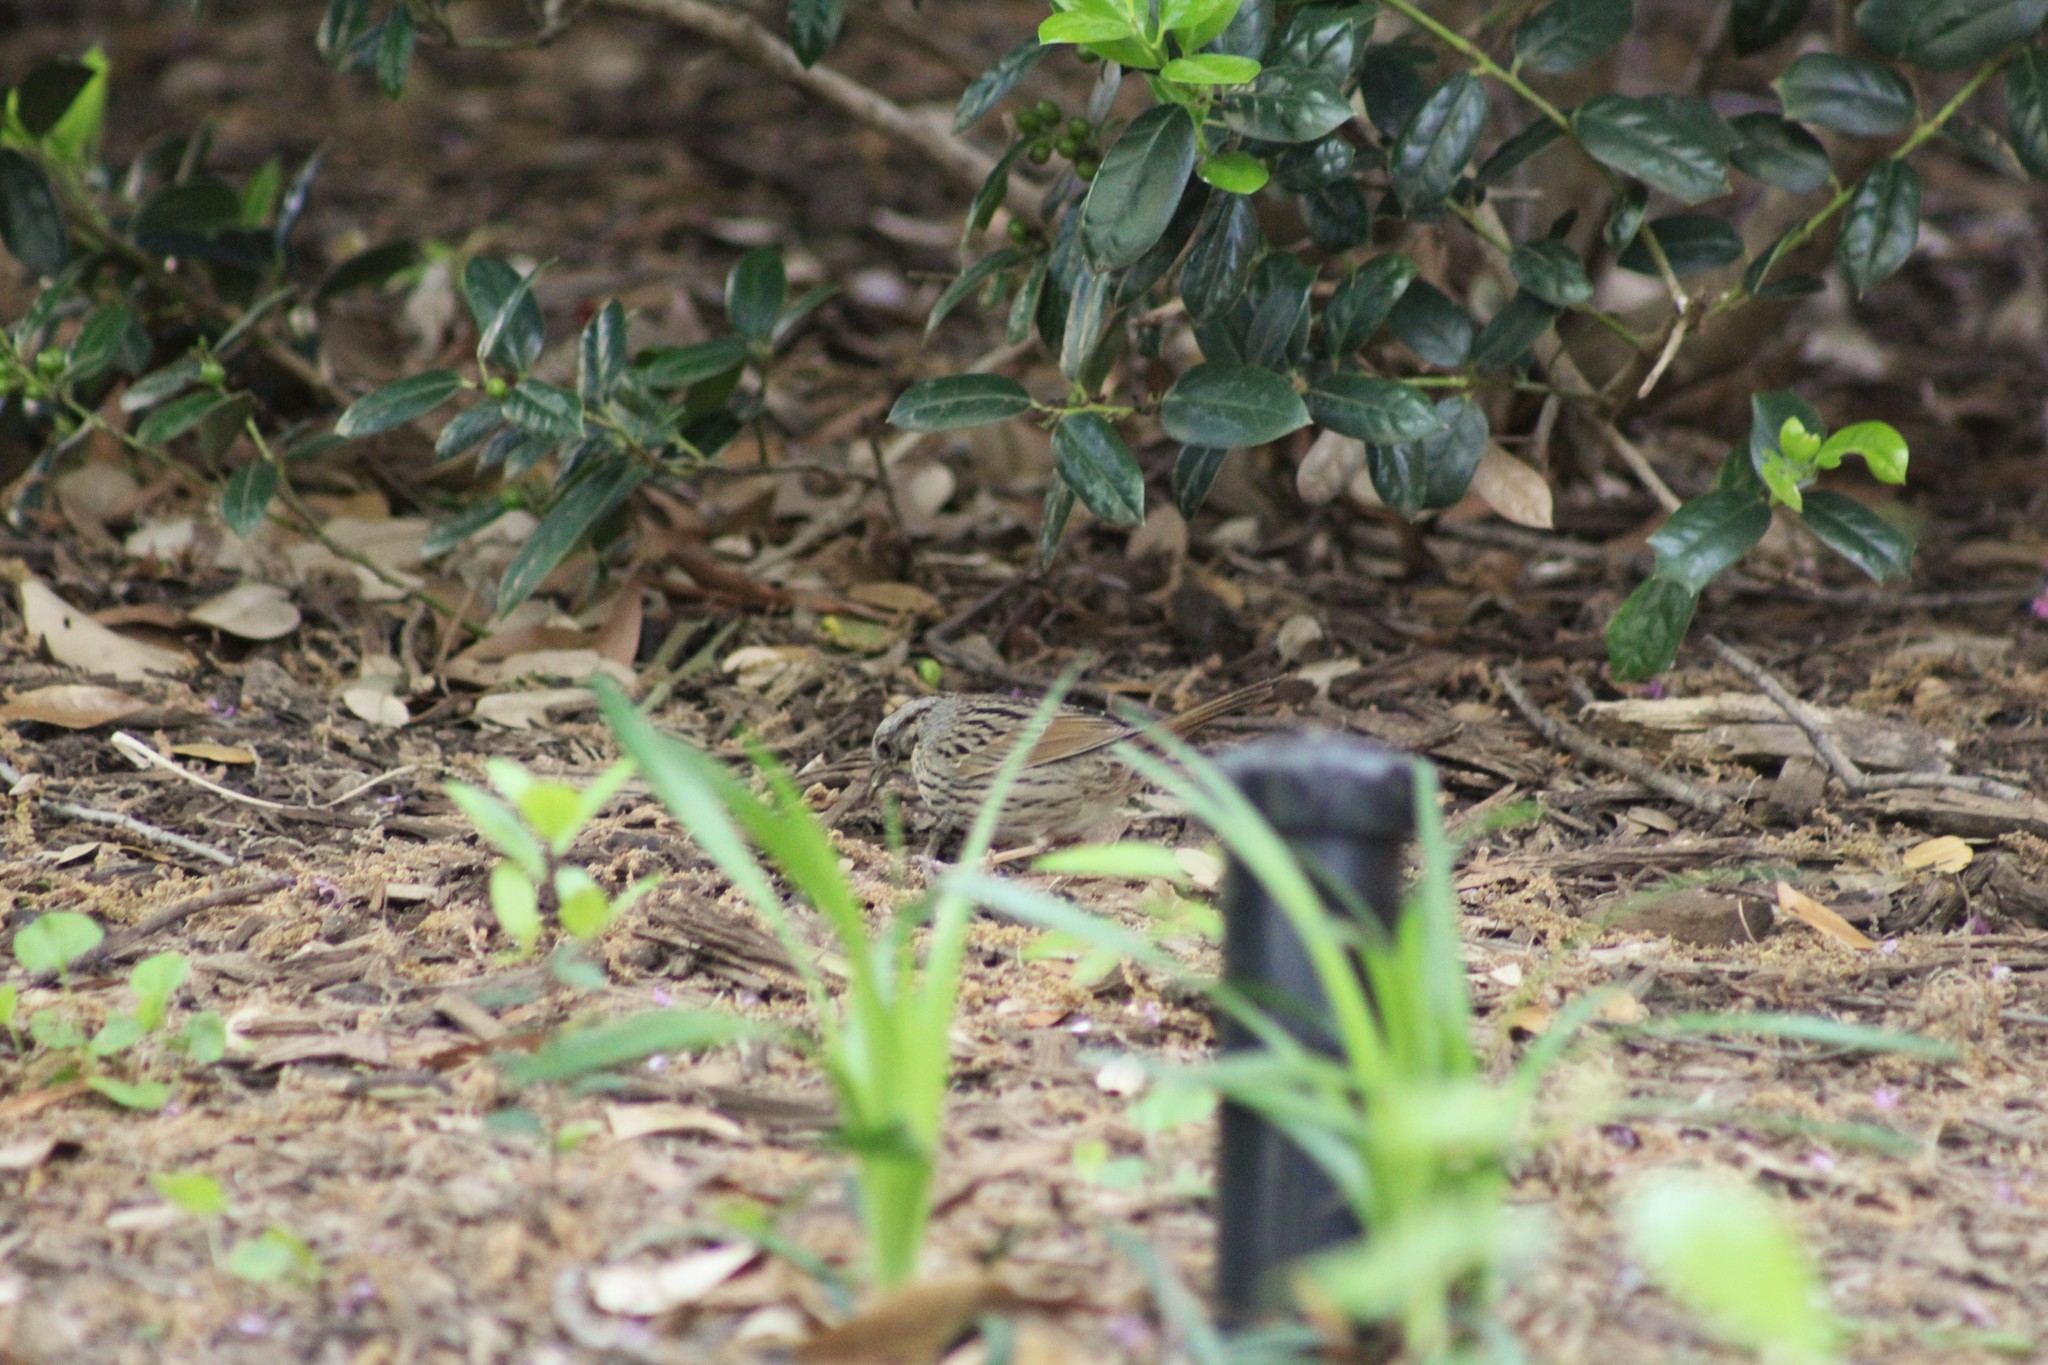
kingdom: Animalia
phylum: Chordata
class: Aves
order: Passeriformes
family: Passerellidae
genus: Melospiza
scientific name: Melospiza lincolnii
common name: Lincoln's sparrow
